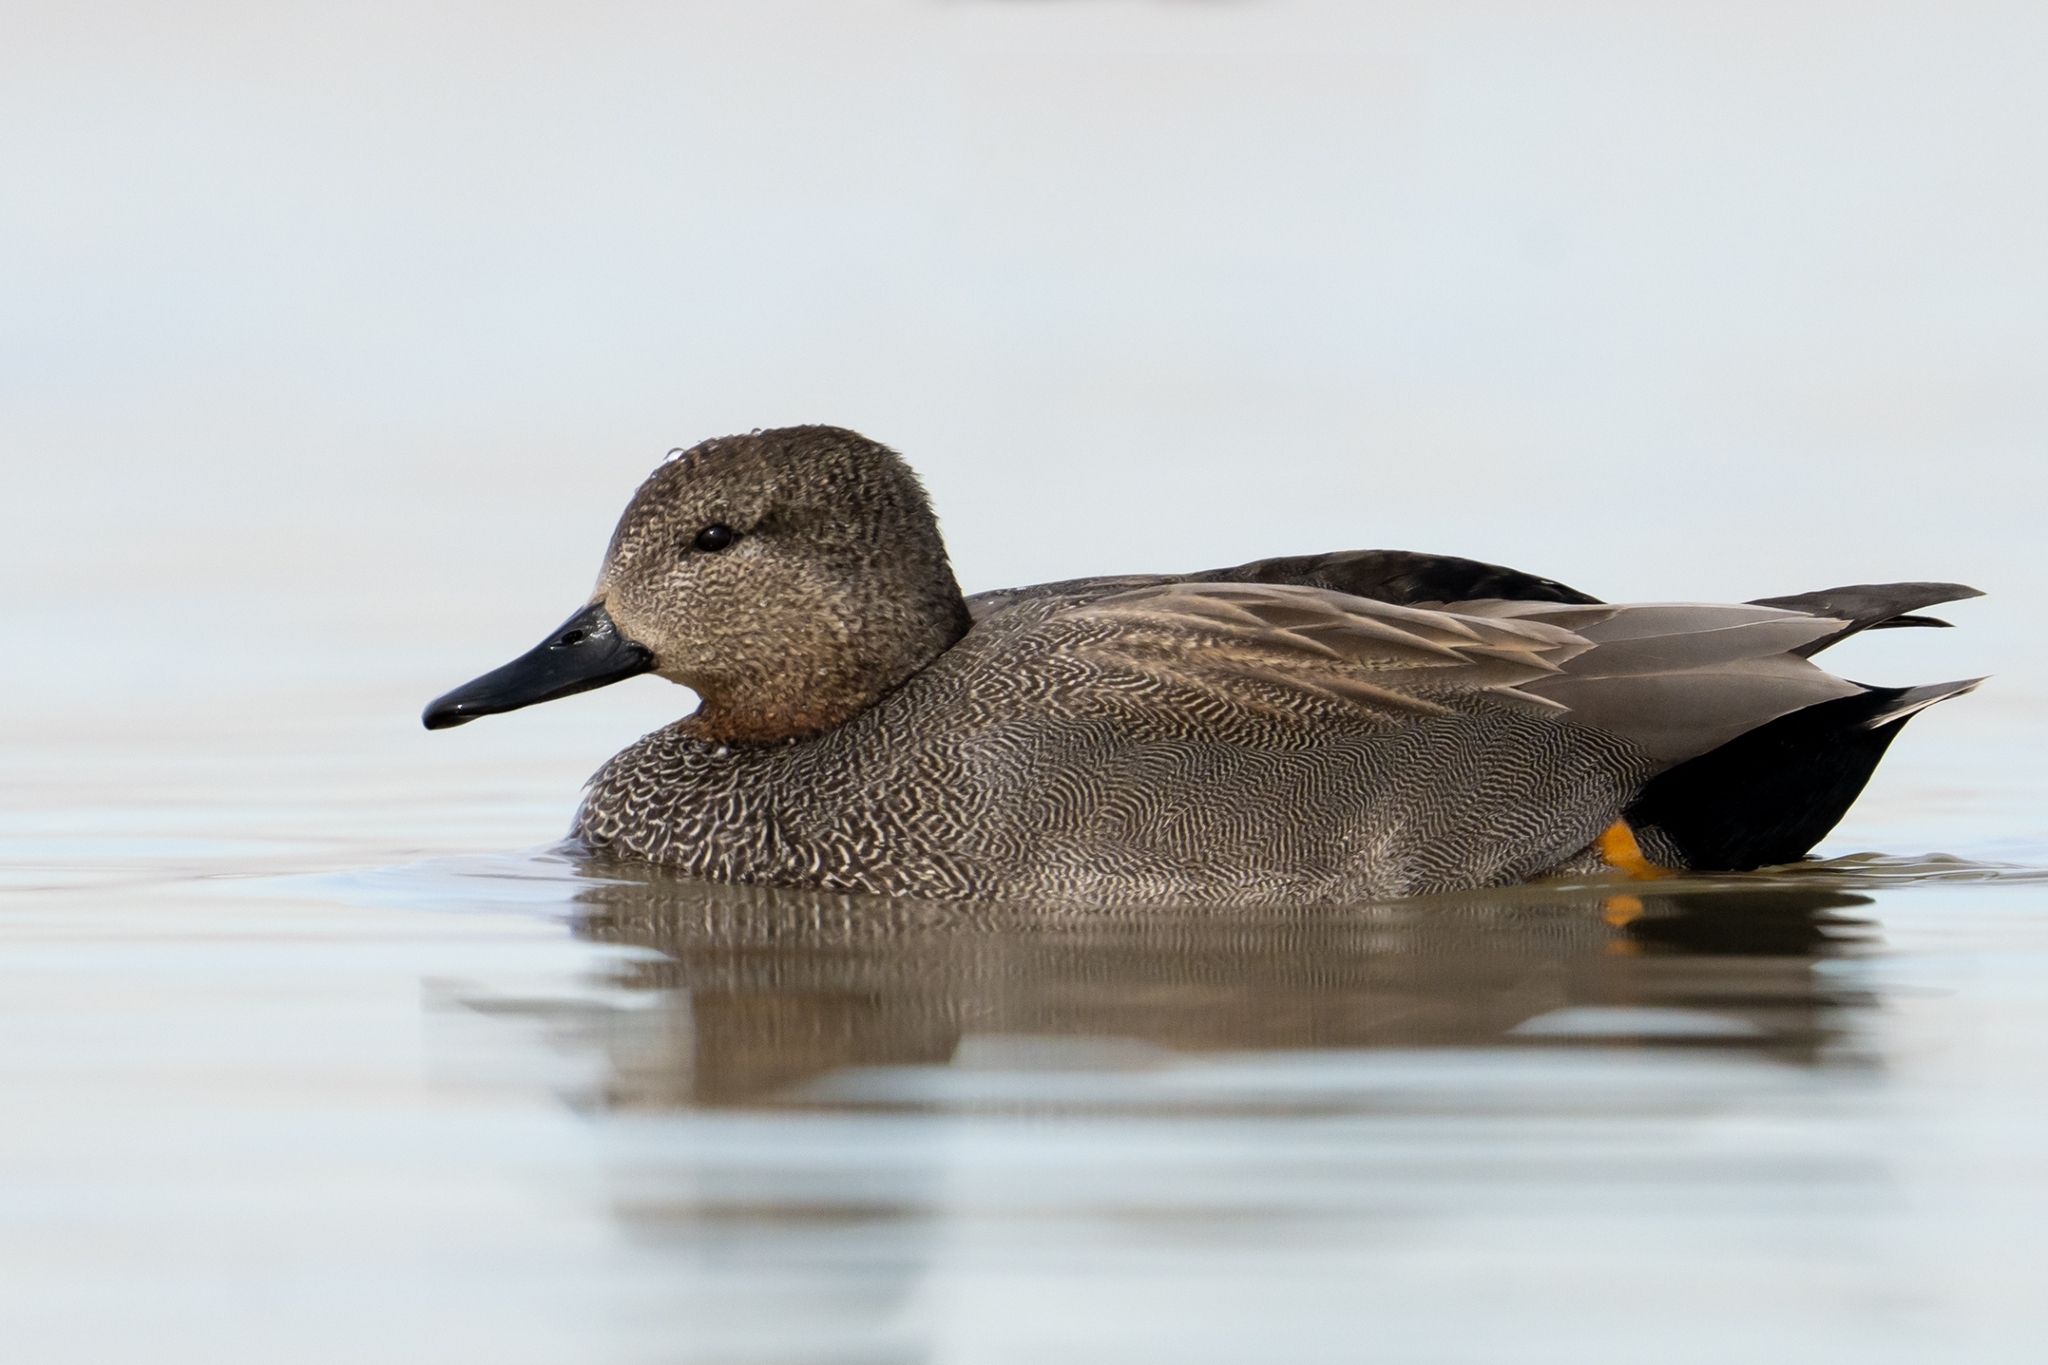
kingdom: Animalia
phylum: Chordata
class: Aves
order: Anseriformes
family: Anatidae
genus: Mareca
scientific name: Mareca strepera
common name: Gadwall
